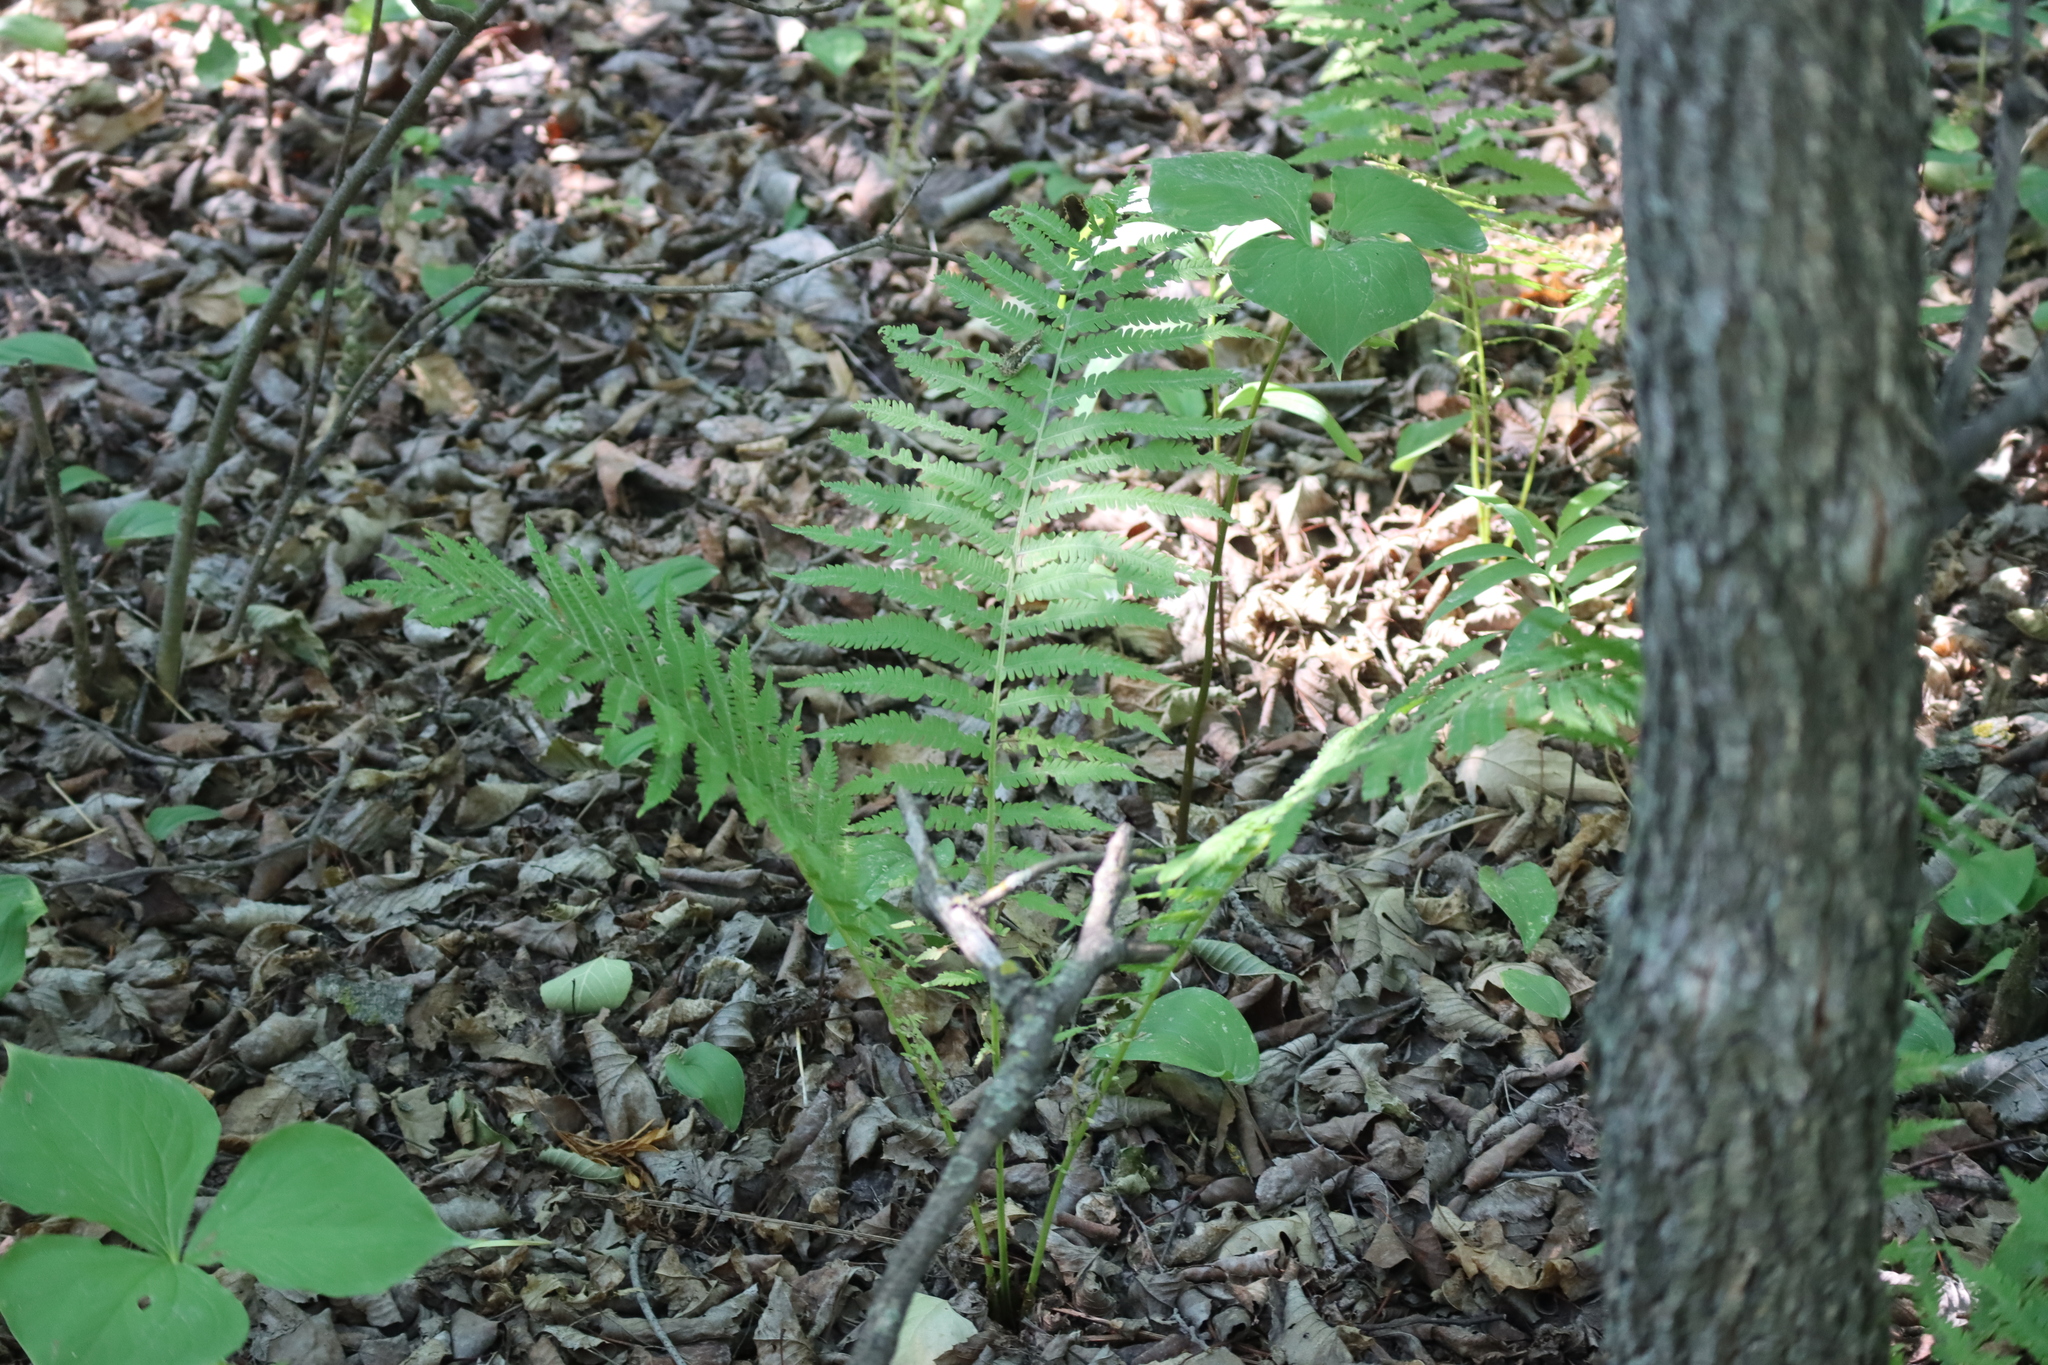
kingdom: Plantae
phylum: Tracheophyta
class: Polypodiopsida
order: Polypodiales
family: Onocleaceae
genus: Matteuccia
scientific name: Matteuccia struthiopteris
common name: Ostrich fern
